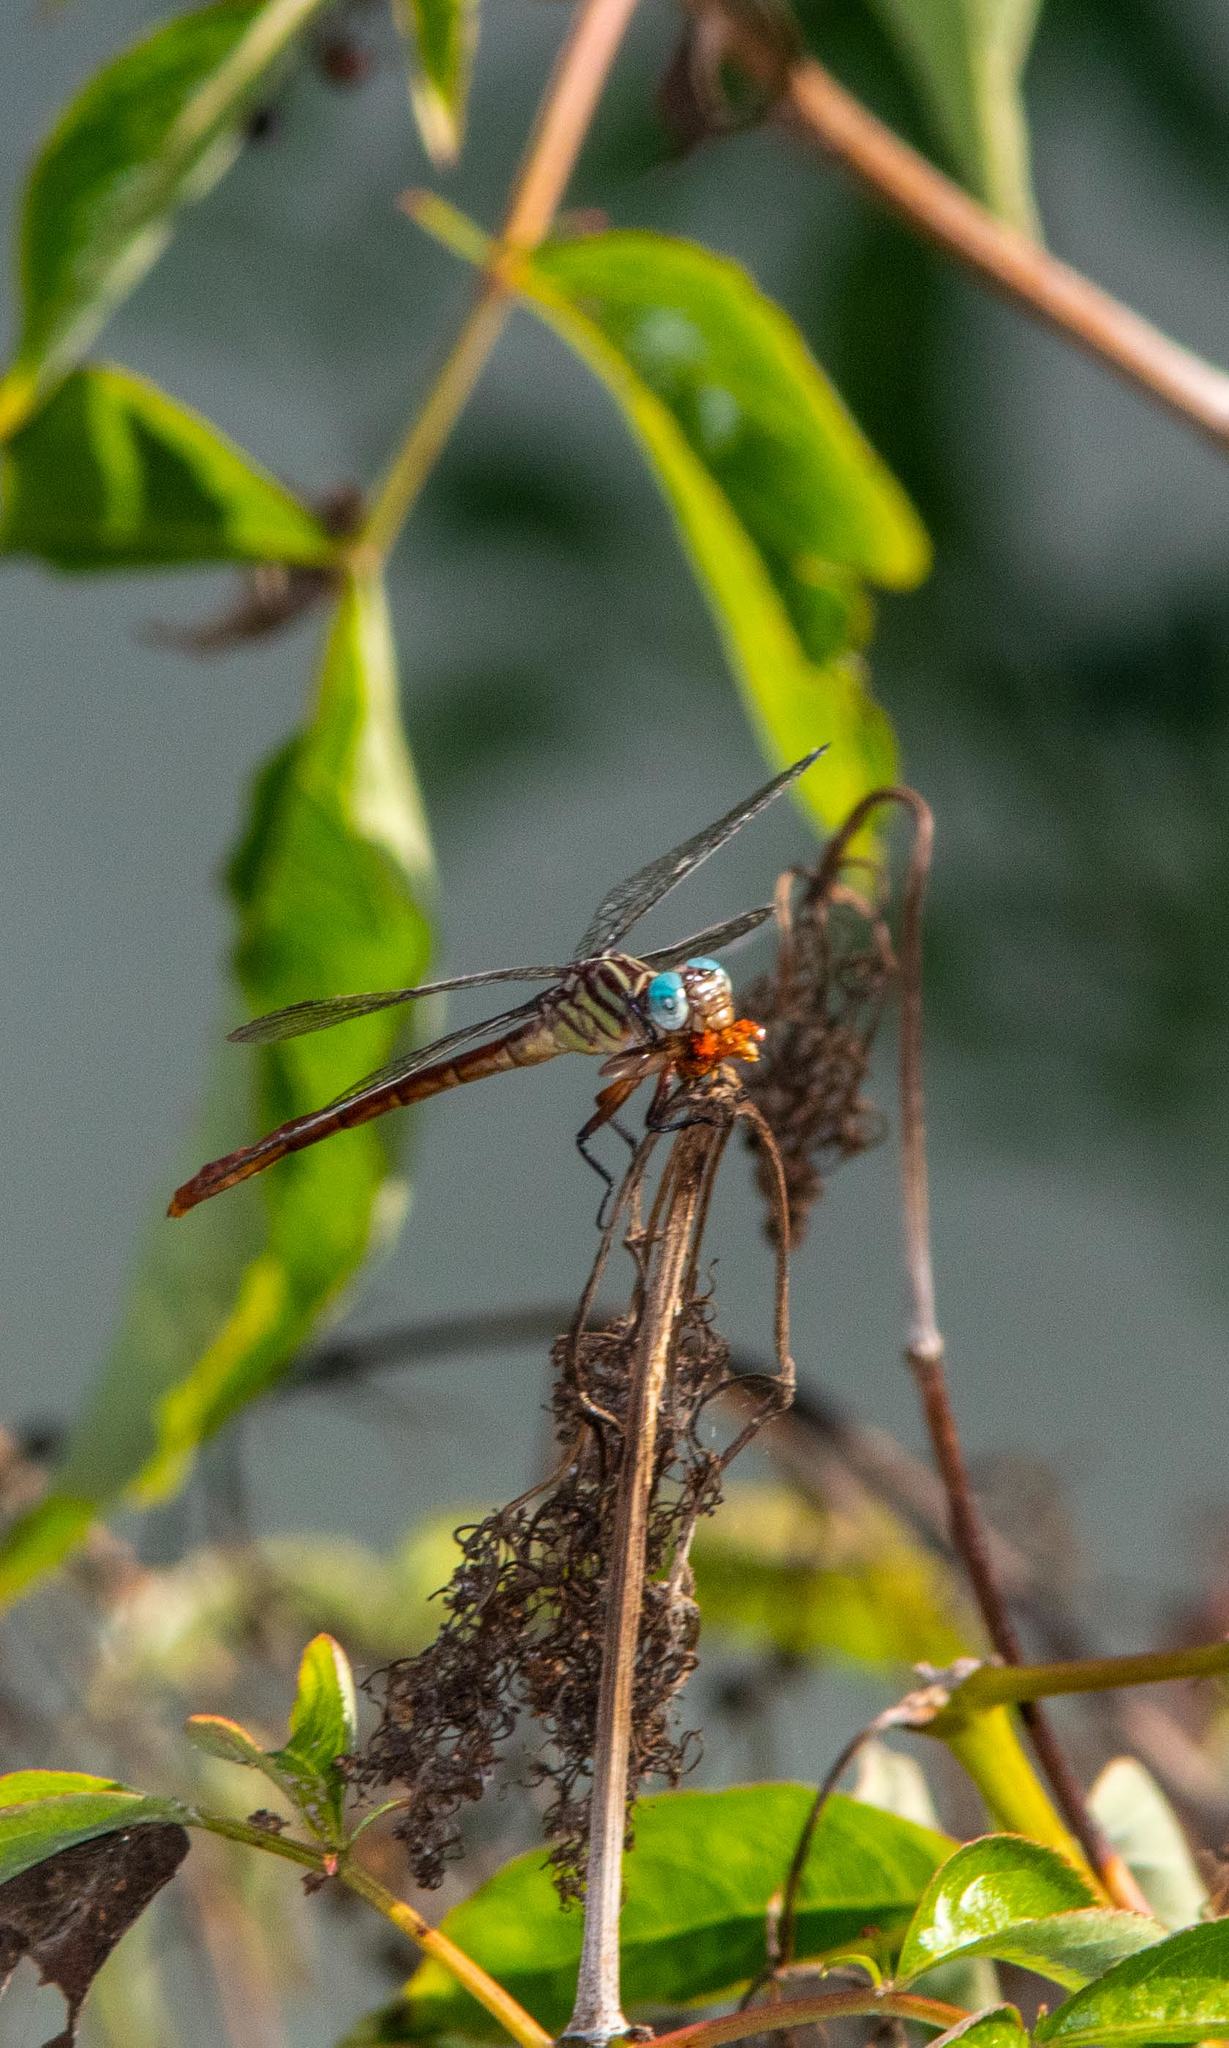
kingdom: Animalia
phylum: Arthropoda
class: Insecta
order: Odonata
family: Gomphidae
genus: Stylurus
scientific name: Stylurus plagiatus
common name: Russet-tipped clubtail
